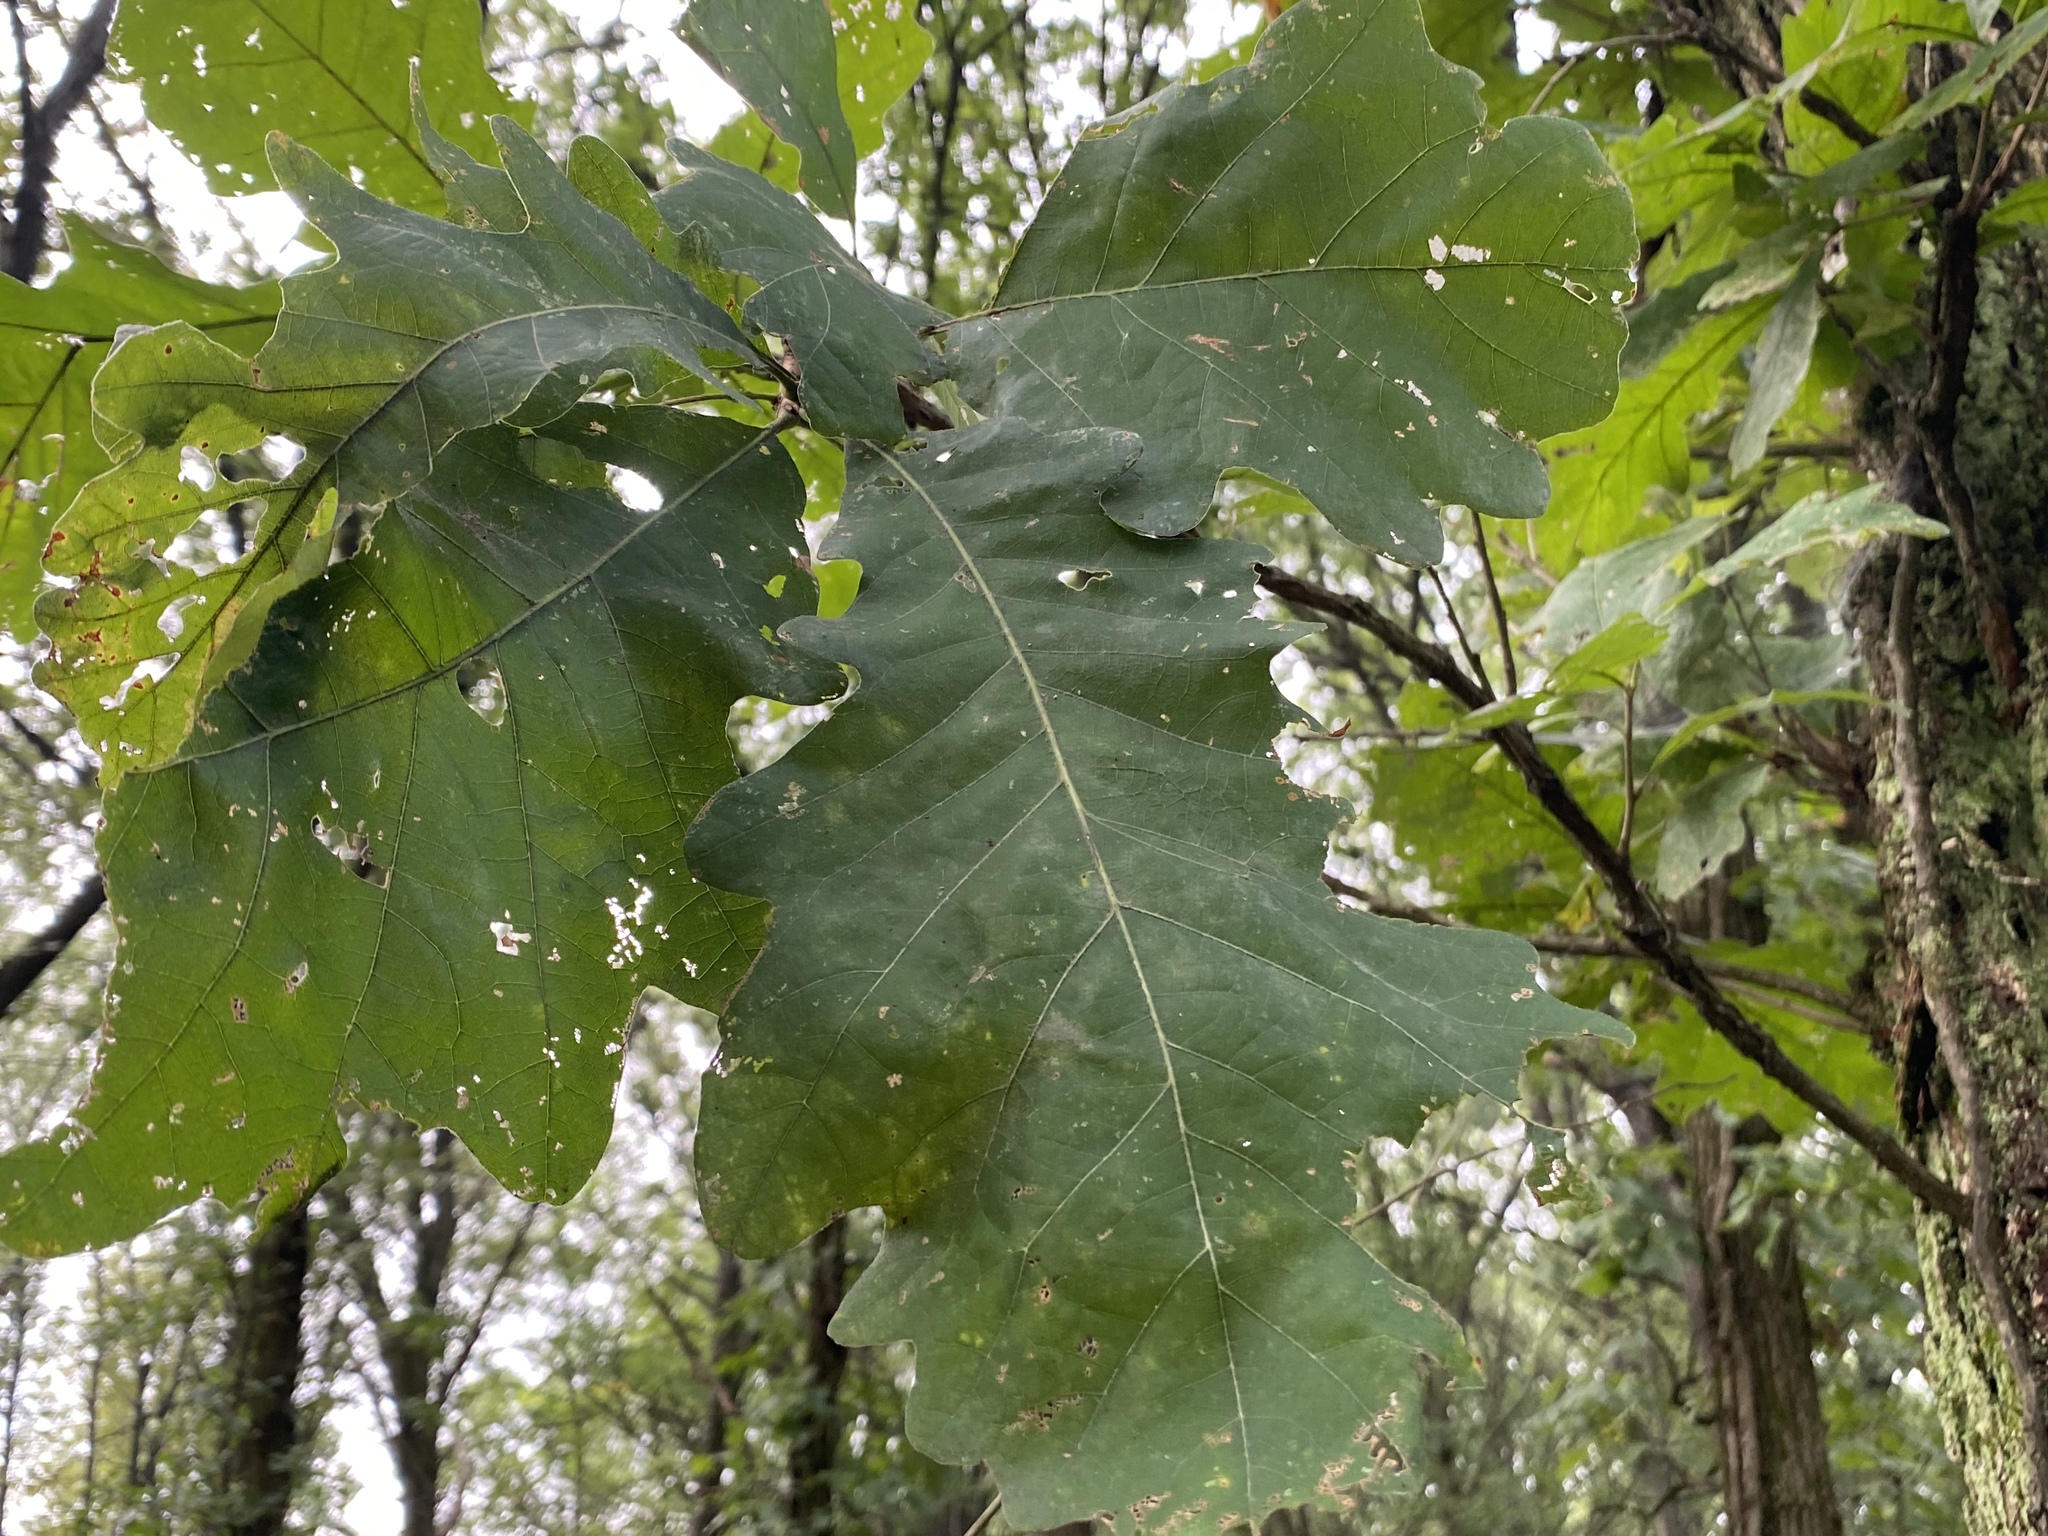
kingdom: Plantae
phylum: Tracheophyta
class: Magnoliopsida
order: Fagales
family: Fagaceae
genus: Quercus
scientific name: Quercus bicolor
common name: Swamp white oak
